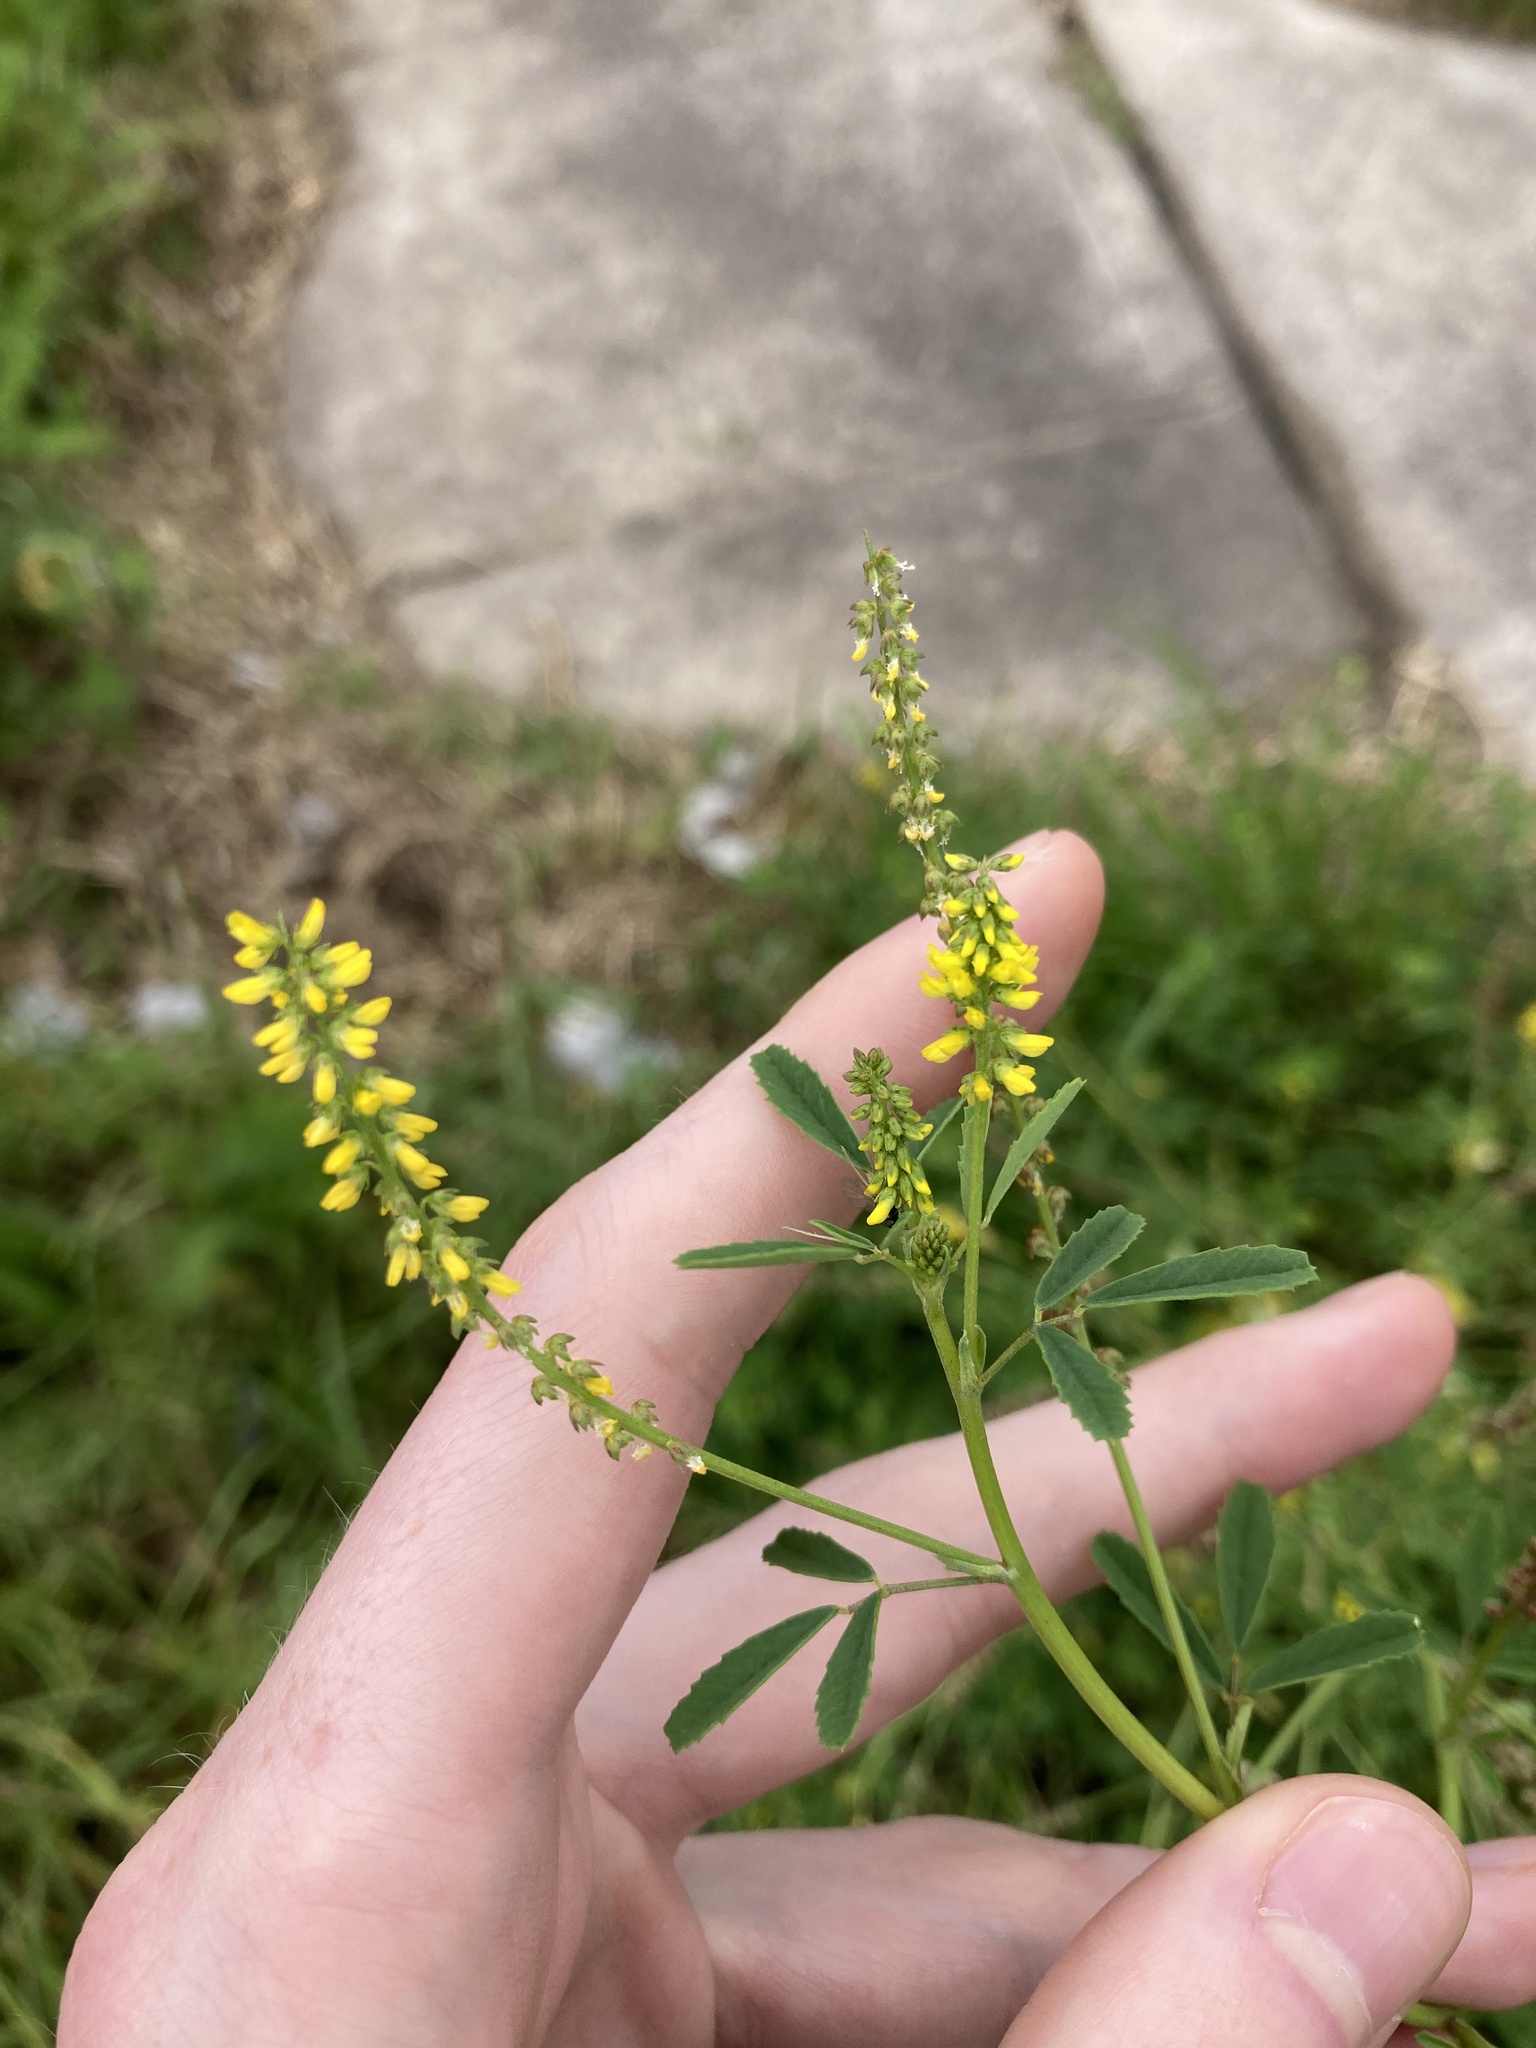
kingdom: Plantae
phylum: Tracheophyta
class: Magnoliopsida
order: Fabales
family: Fabaceae
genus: Melilotus
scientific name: Melilotus indicus
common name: Small melilot
